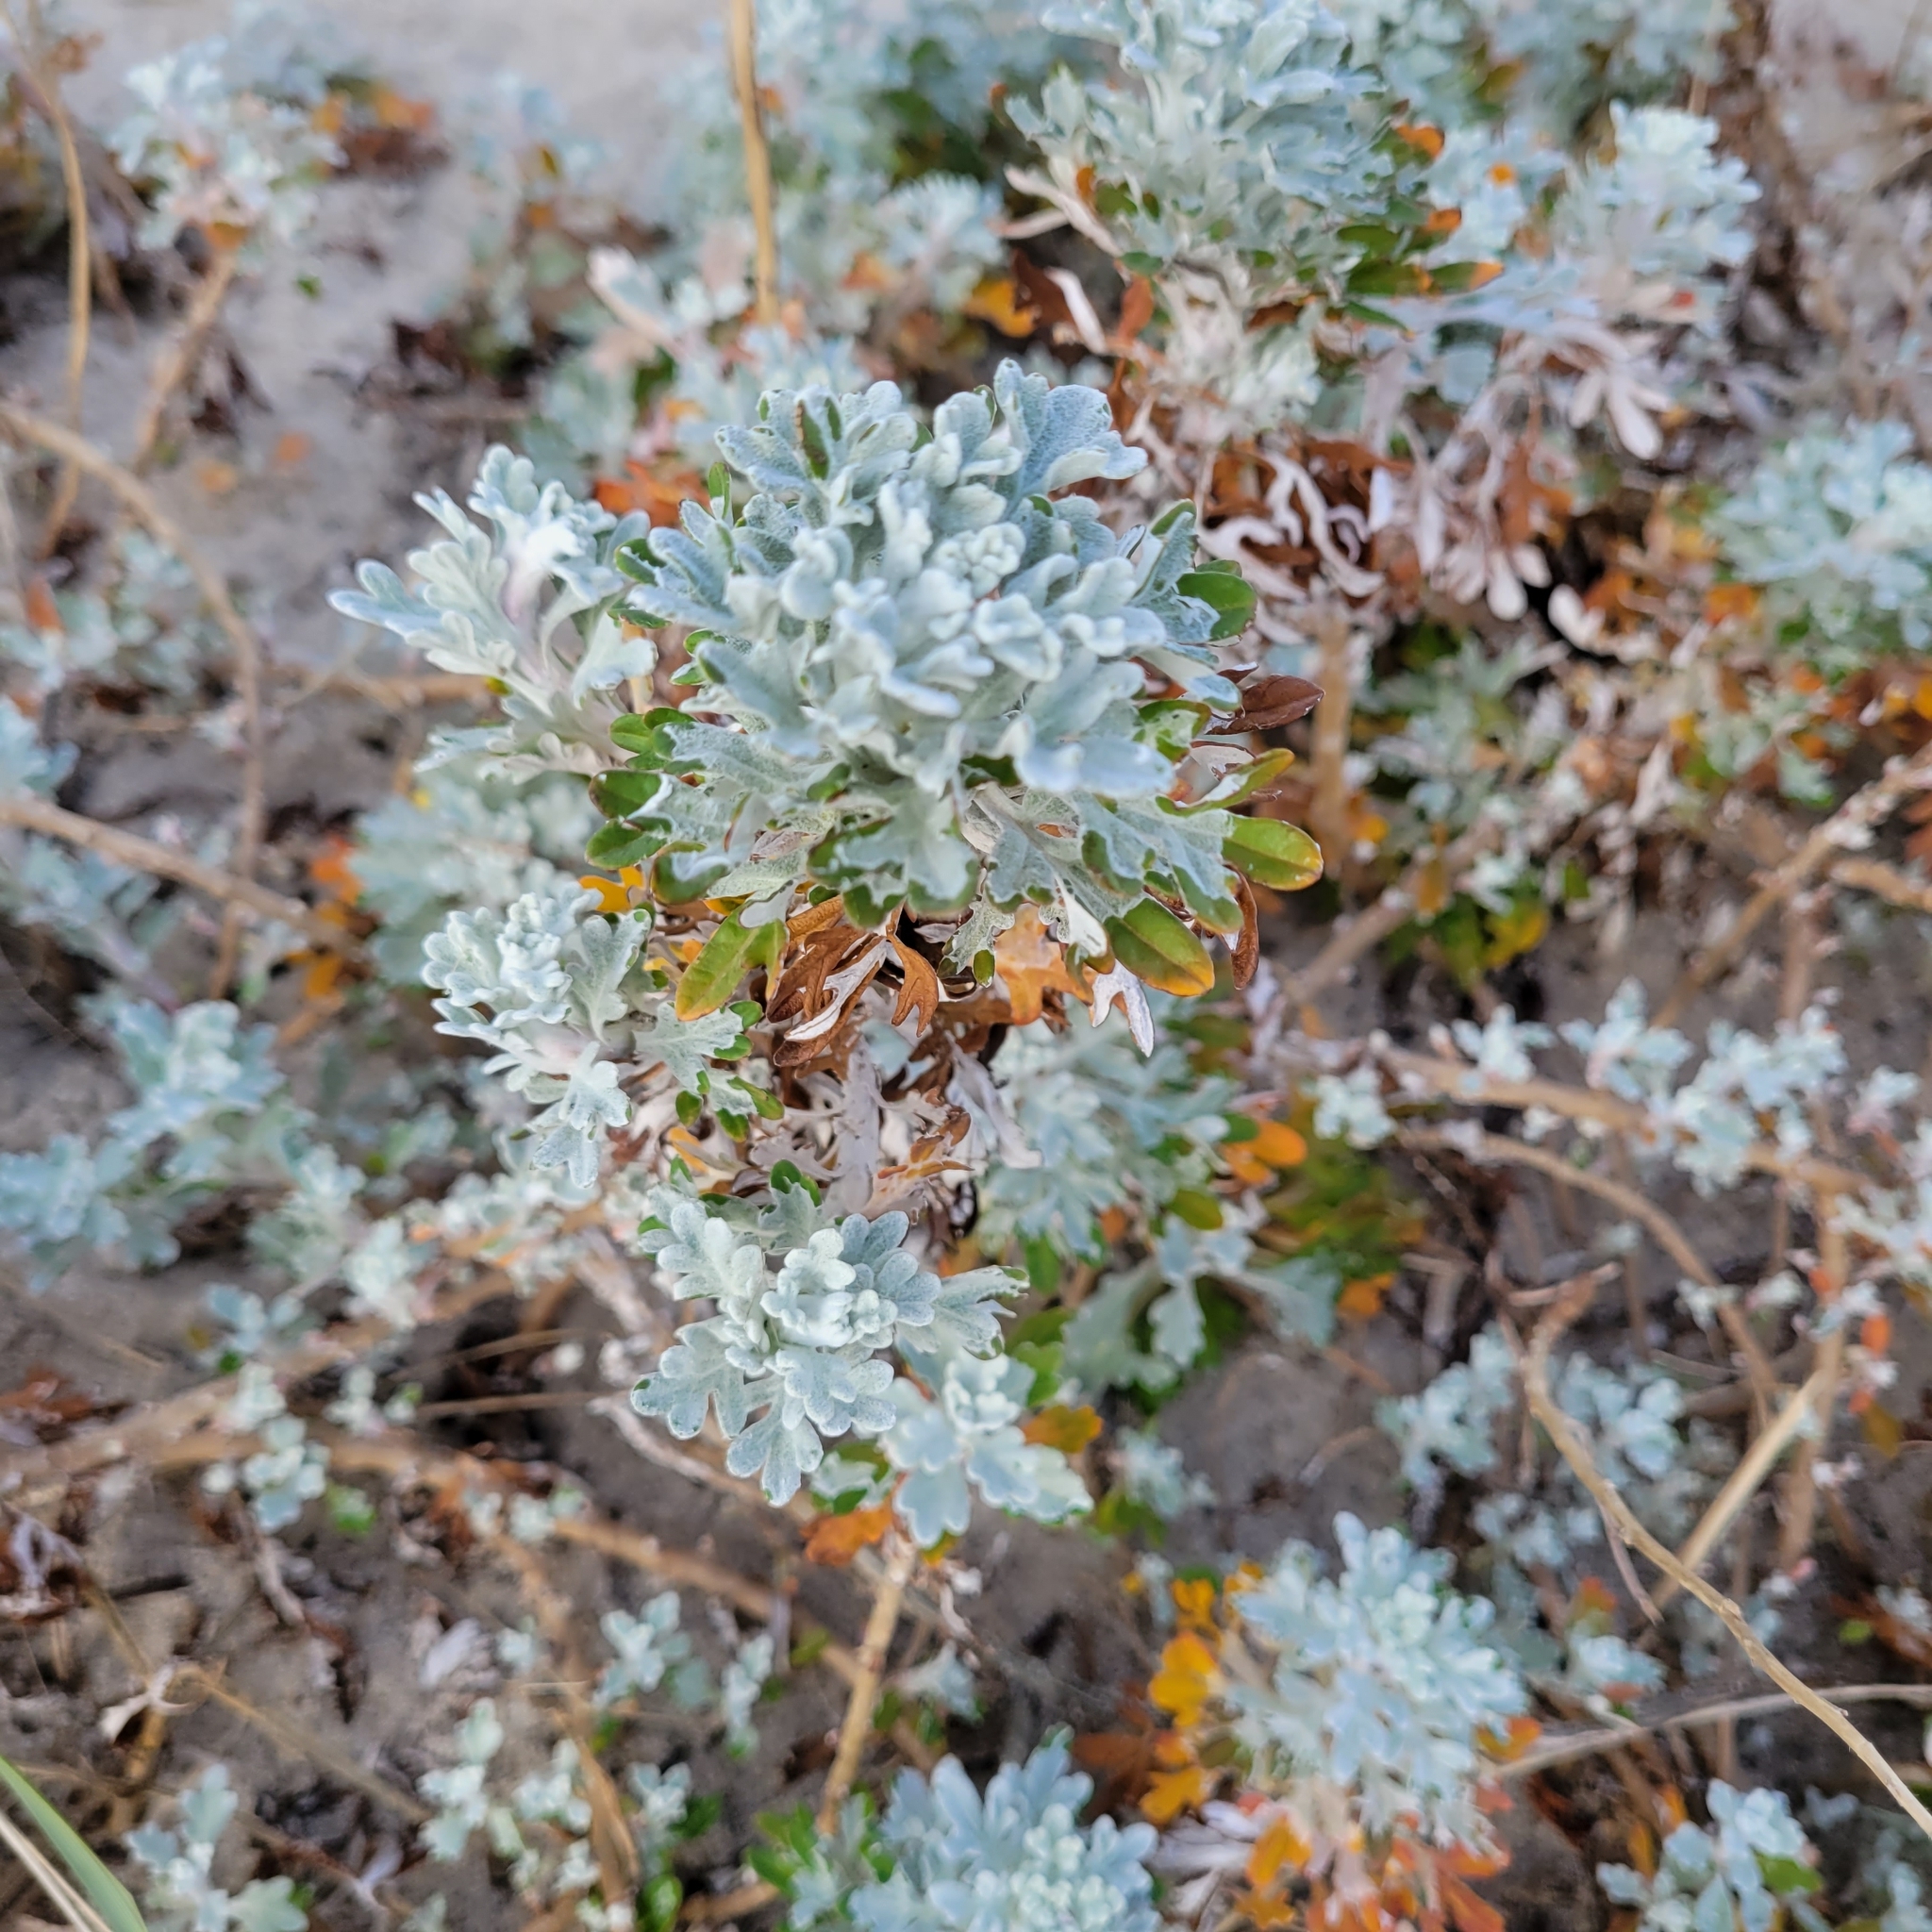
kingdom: Plantae
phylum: Tracheophyta
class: Magnoliopsida
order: Asterales
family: Asteraceae
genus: Artemisia
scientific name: Artemisia stelleriana
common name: Beach wormwood
